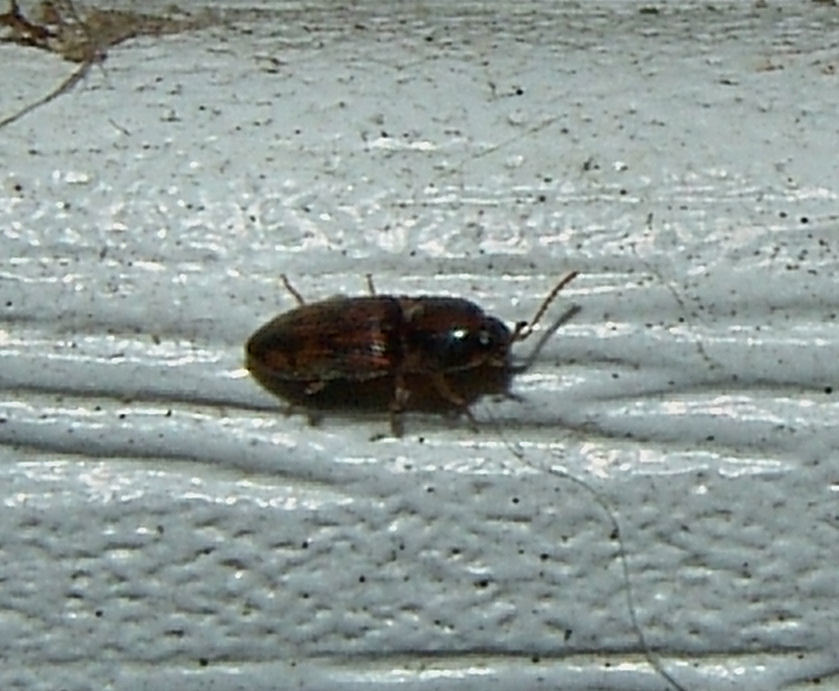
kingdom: Animalia
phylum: Arthropoda
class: Insecta
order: Coleoptera
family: Elateridae
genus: Monocrepidius
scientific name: Monocrepidius bellus
